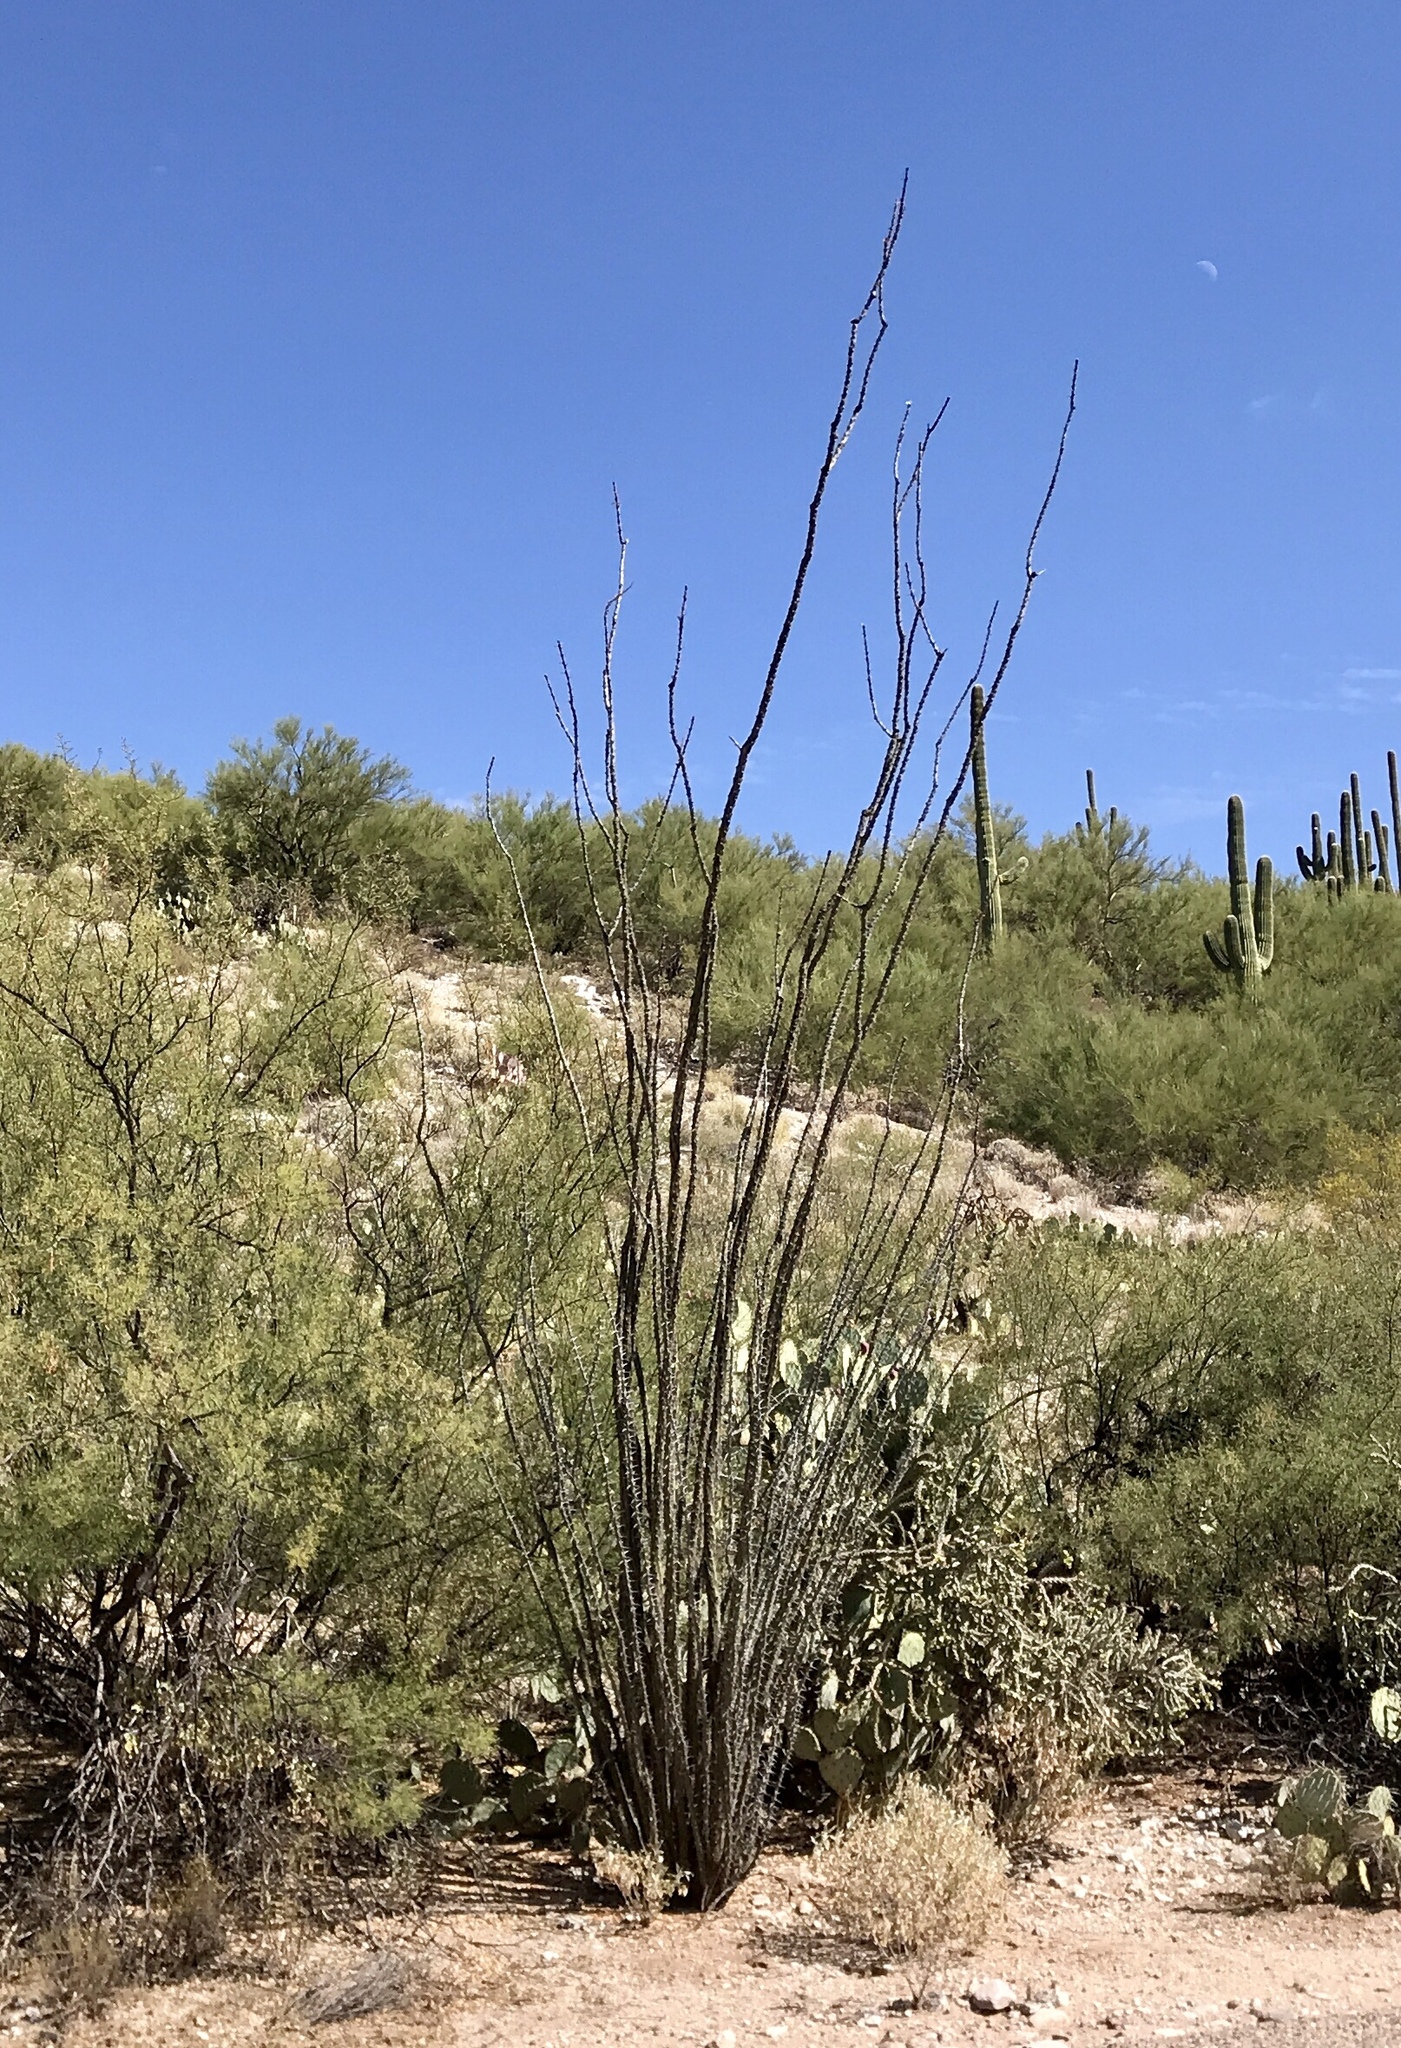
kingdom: Plantae
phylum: Tracheophyta
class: Magnoliopsida
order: Ericales
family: Fouquieriaceae
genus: Fouquieria
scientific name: Fouquieria splendens
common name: Vine-cactus
